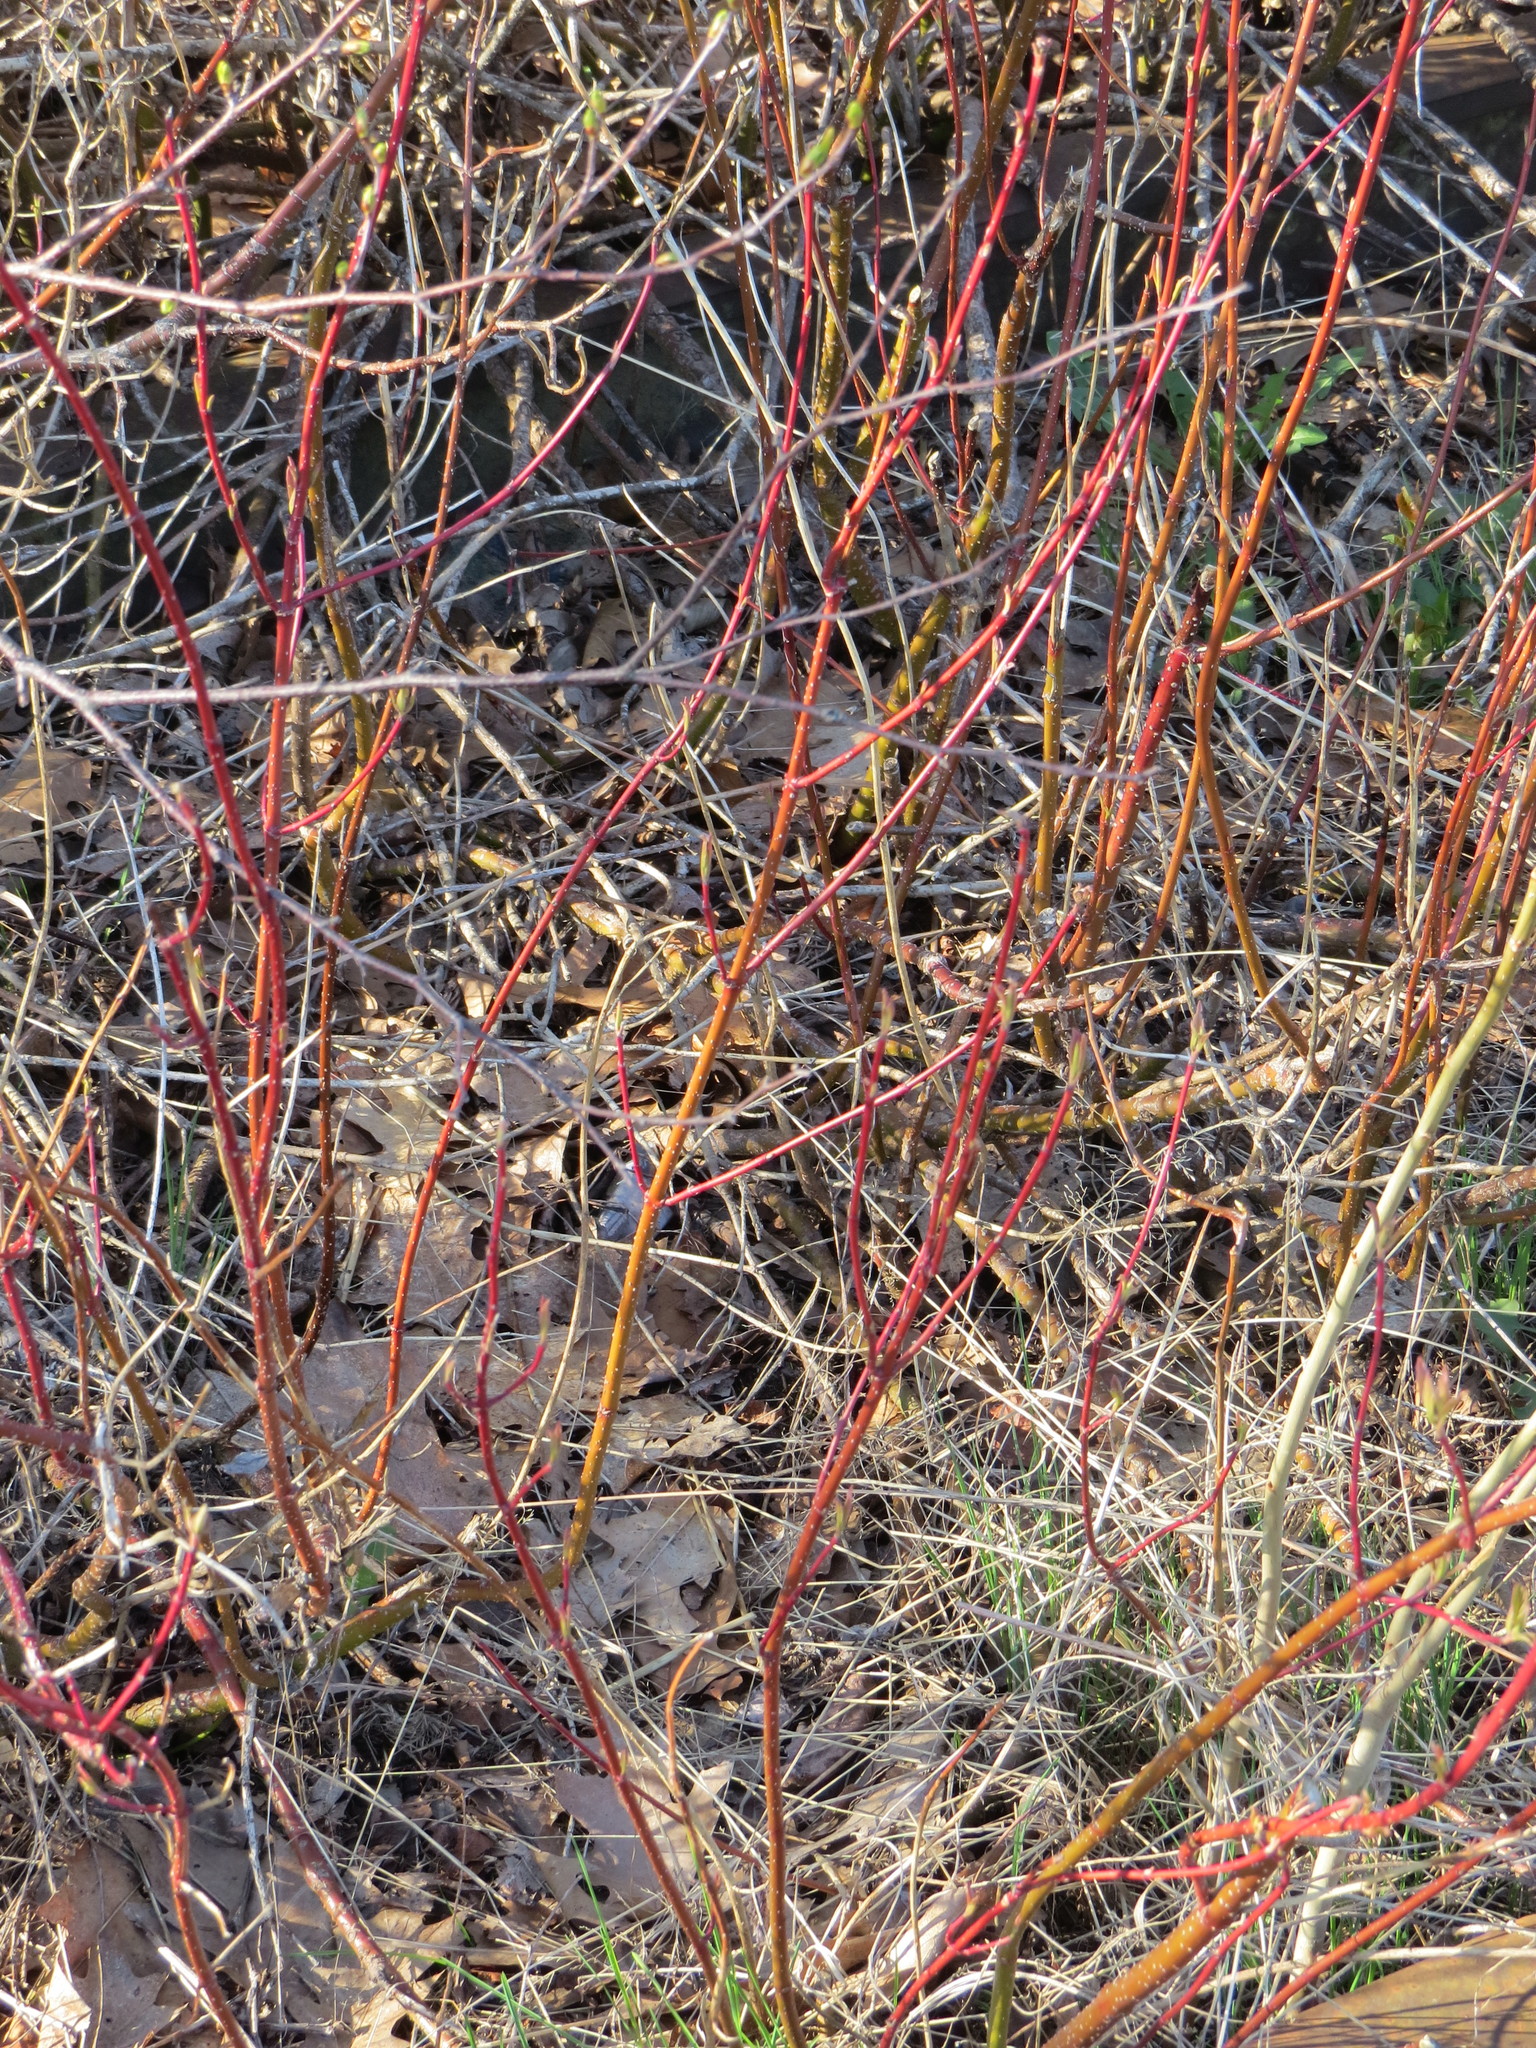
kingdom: Plantae
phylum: Tracheophyta
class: Magnoliopsida
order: Cornales
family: Cornaceae
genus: Cornus
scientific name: Cornus sericea
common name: Red-osier dogwood
